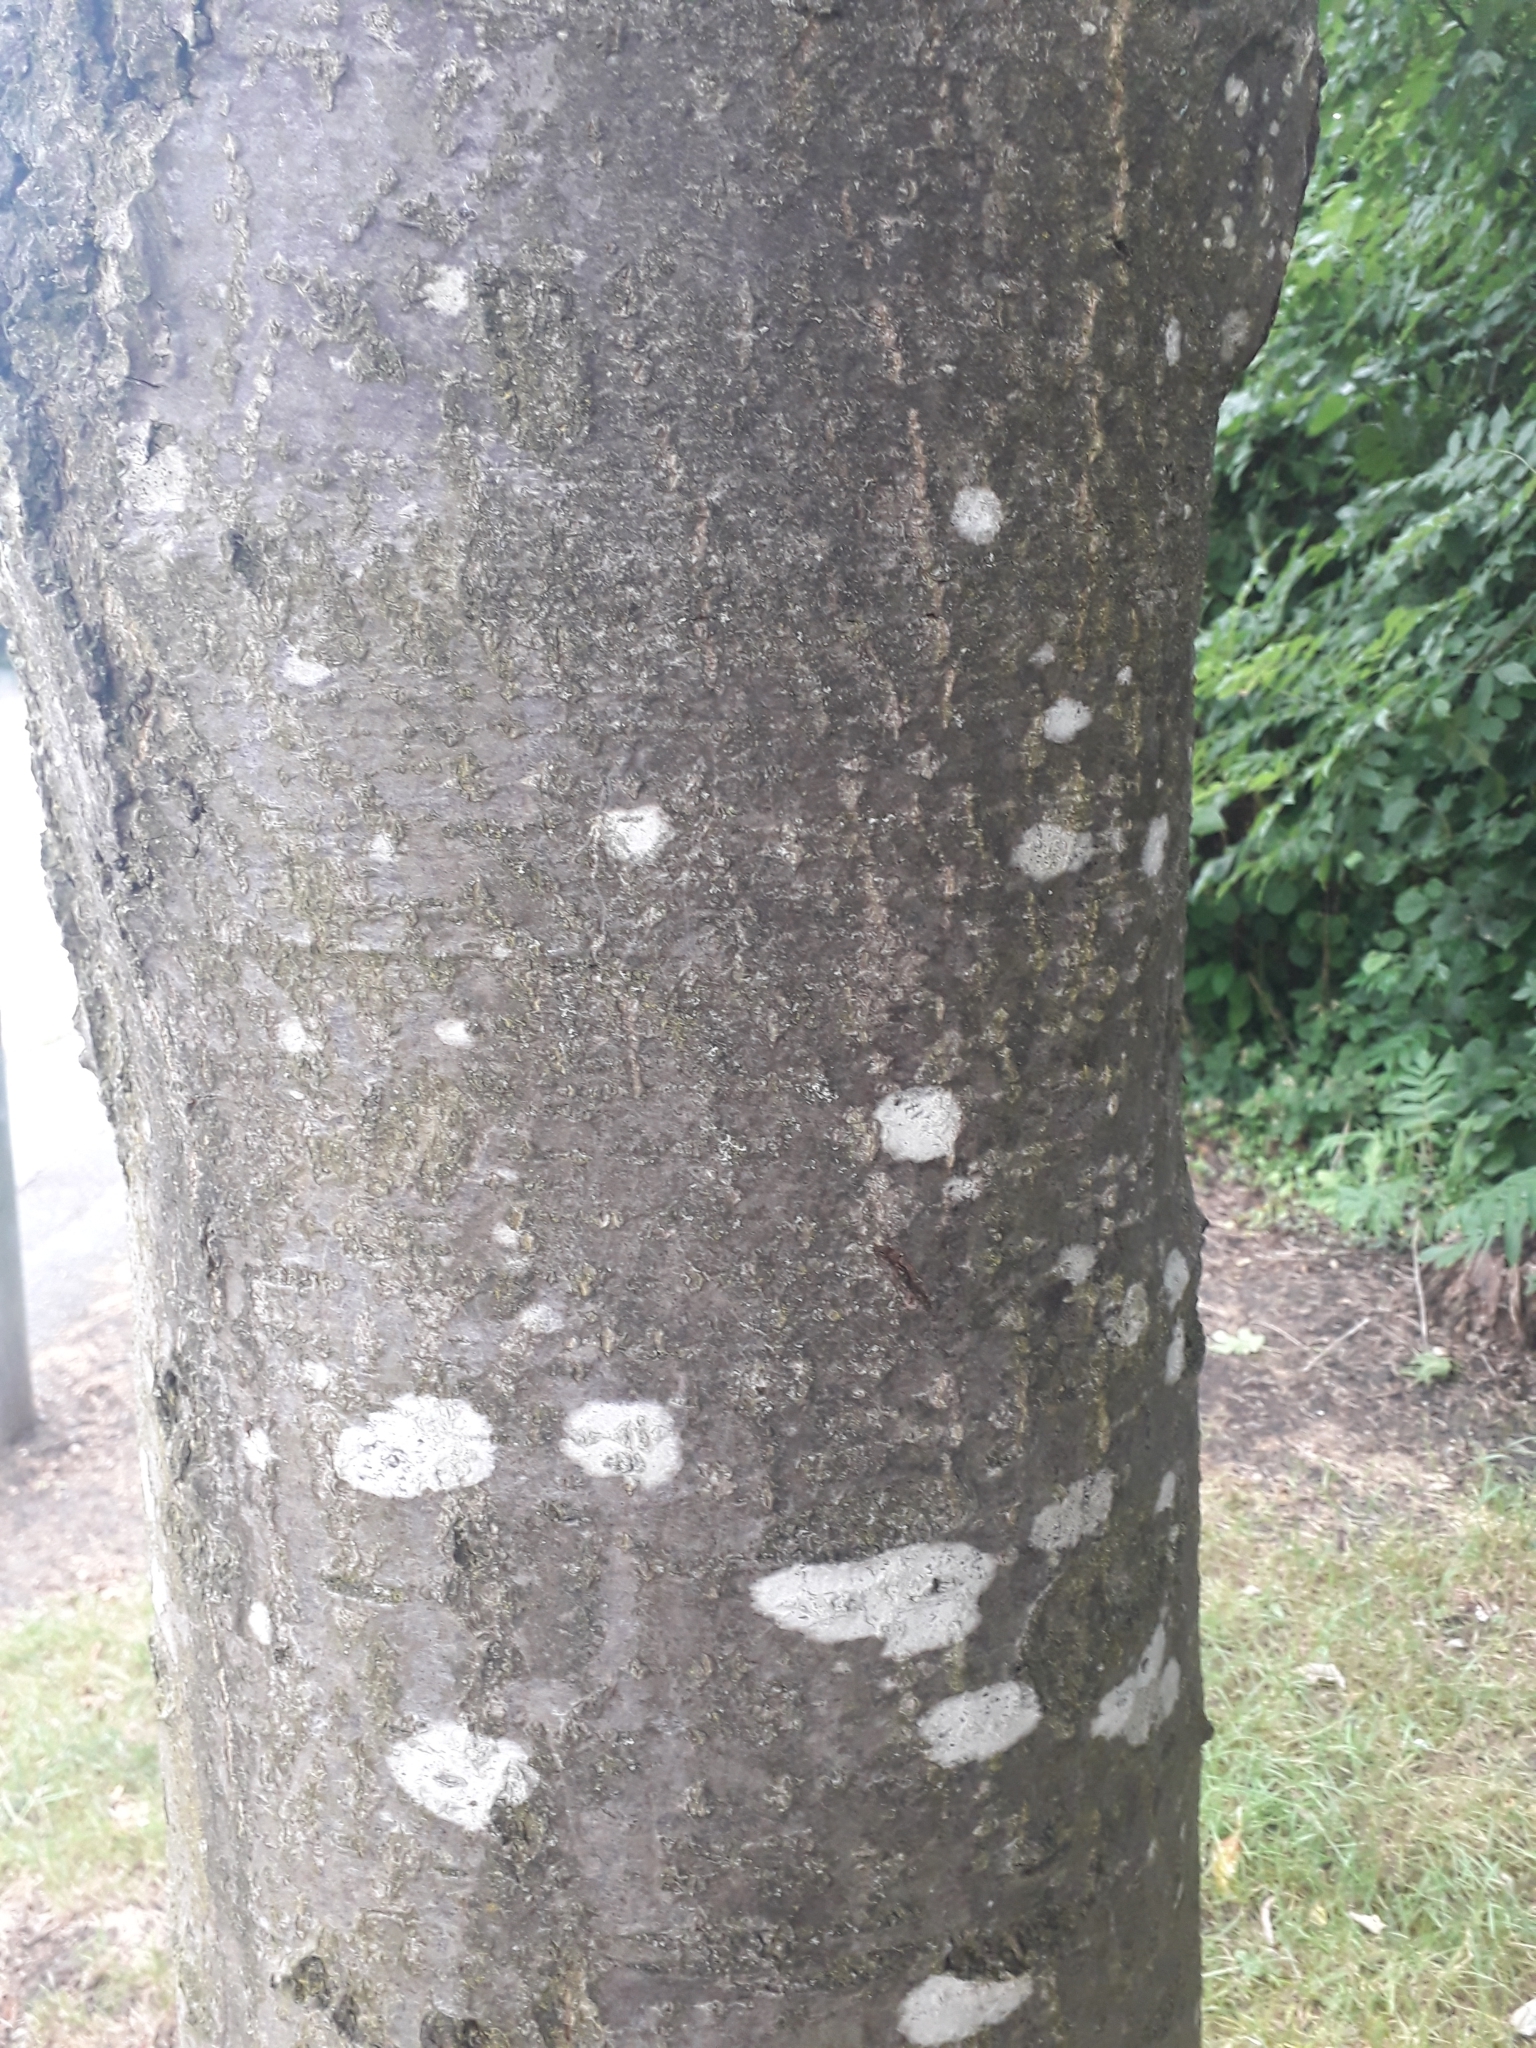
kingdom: Plantae
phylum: Tracheophyta
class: Magnoliopsida
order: Rosales
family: Rosaceae
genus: Aria
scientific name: Aria edulis
